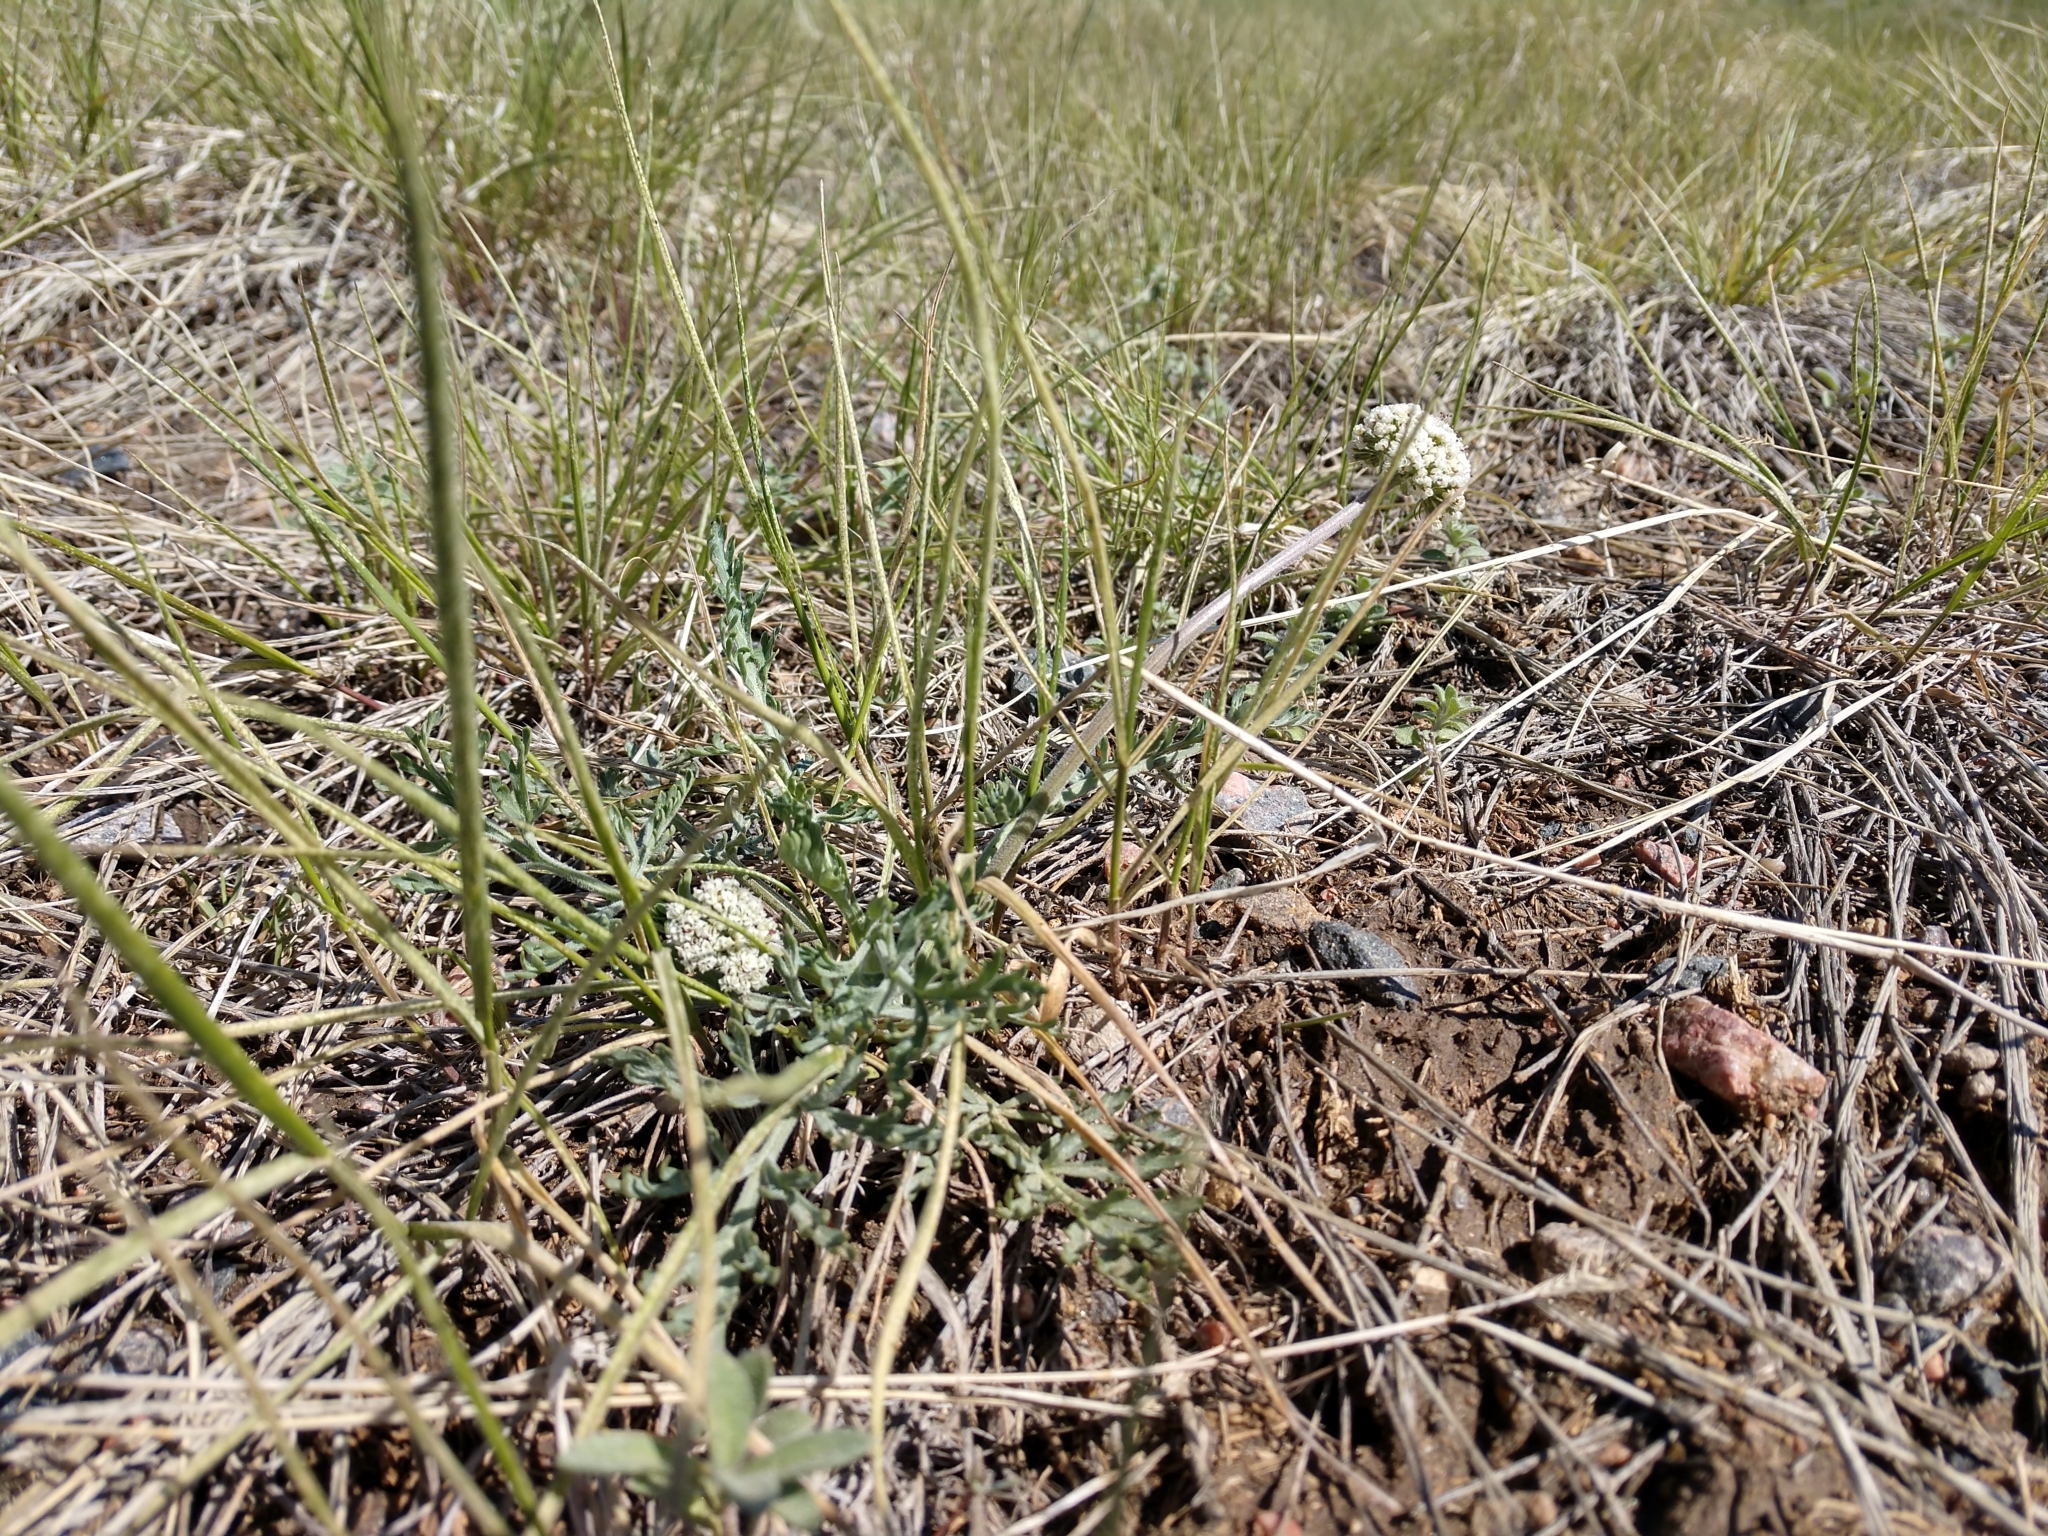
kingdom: Plantae
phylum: Tracheophyta
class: Magnoliopsida
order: Apiales
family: Apiaceae
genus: Lomatium
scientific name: Lomatium orientale
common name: Eastern cous
